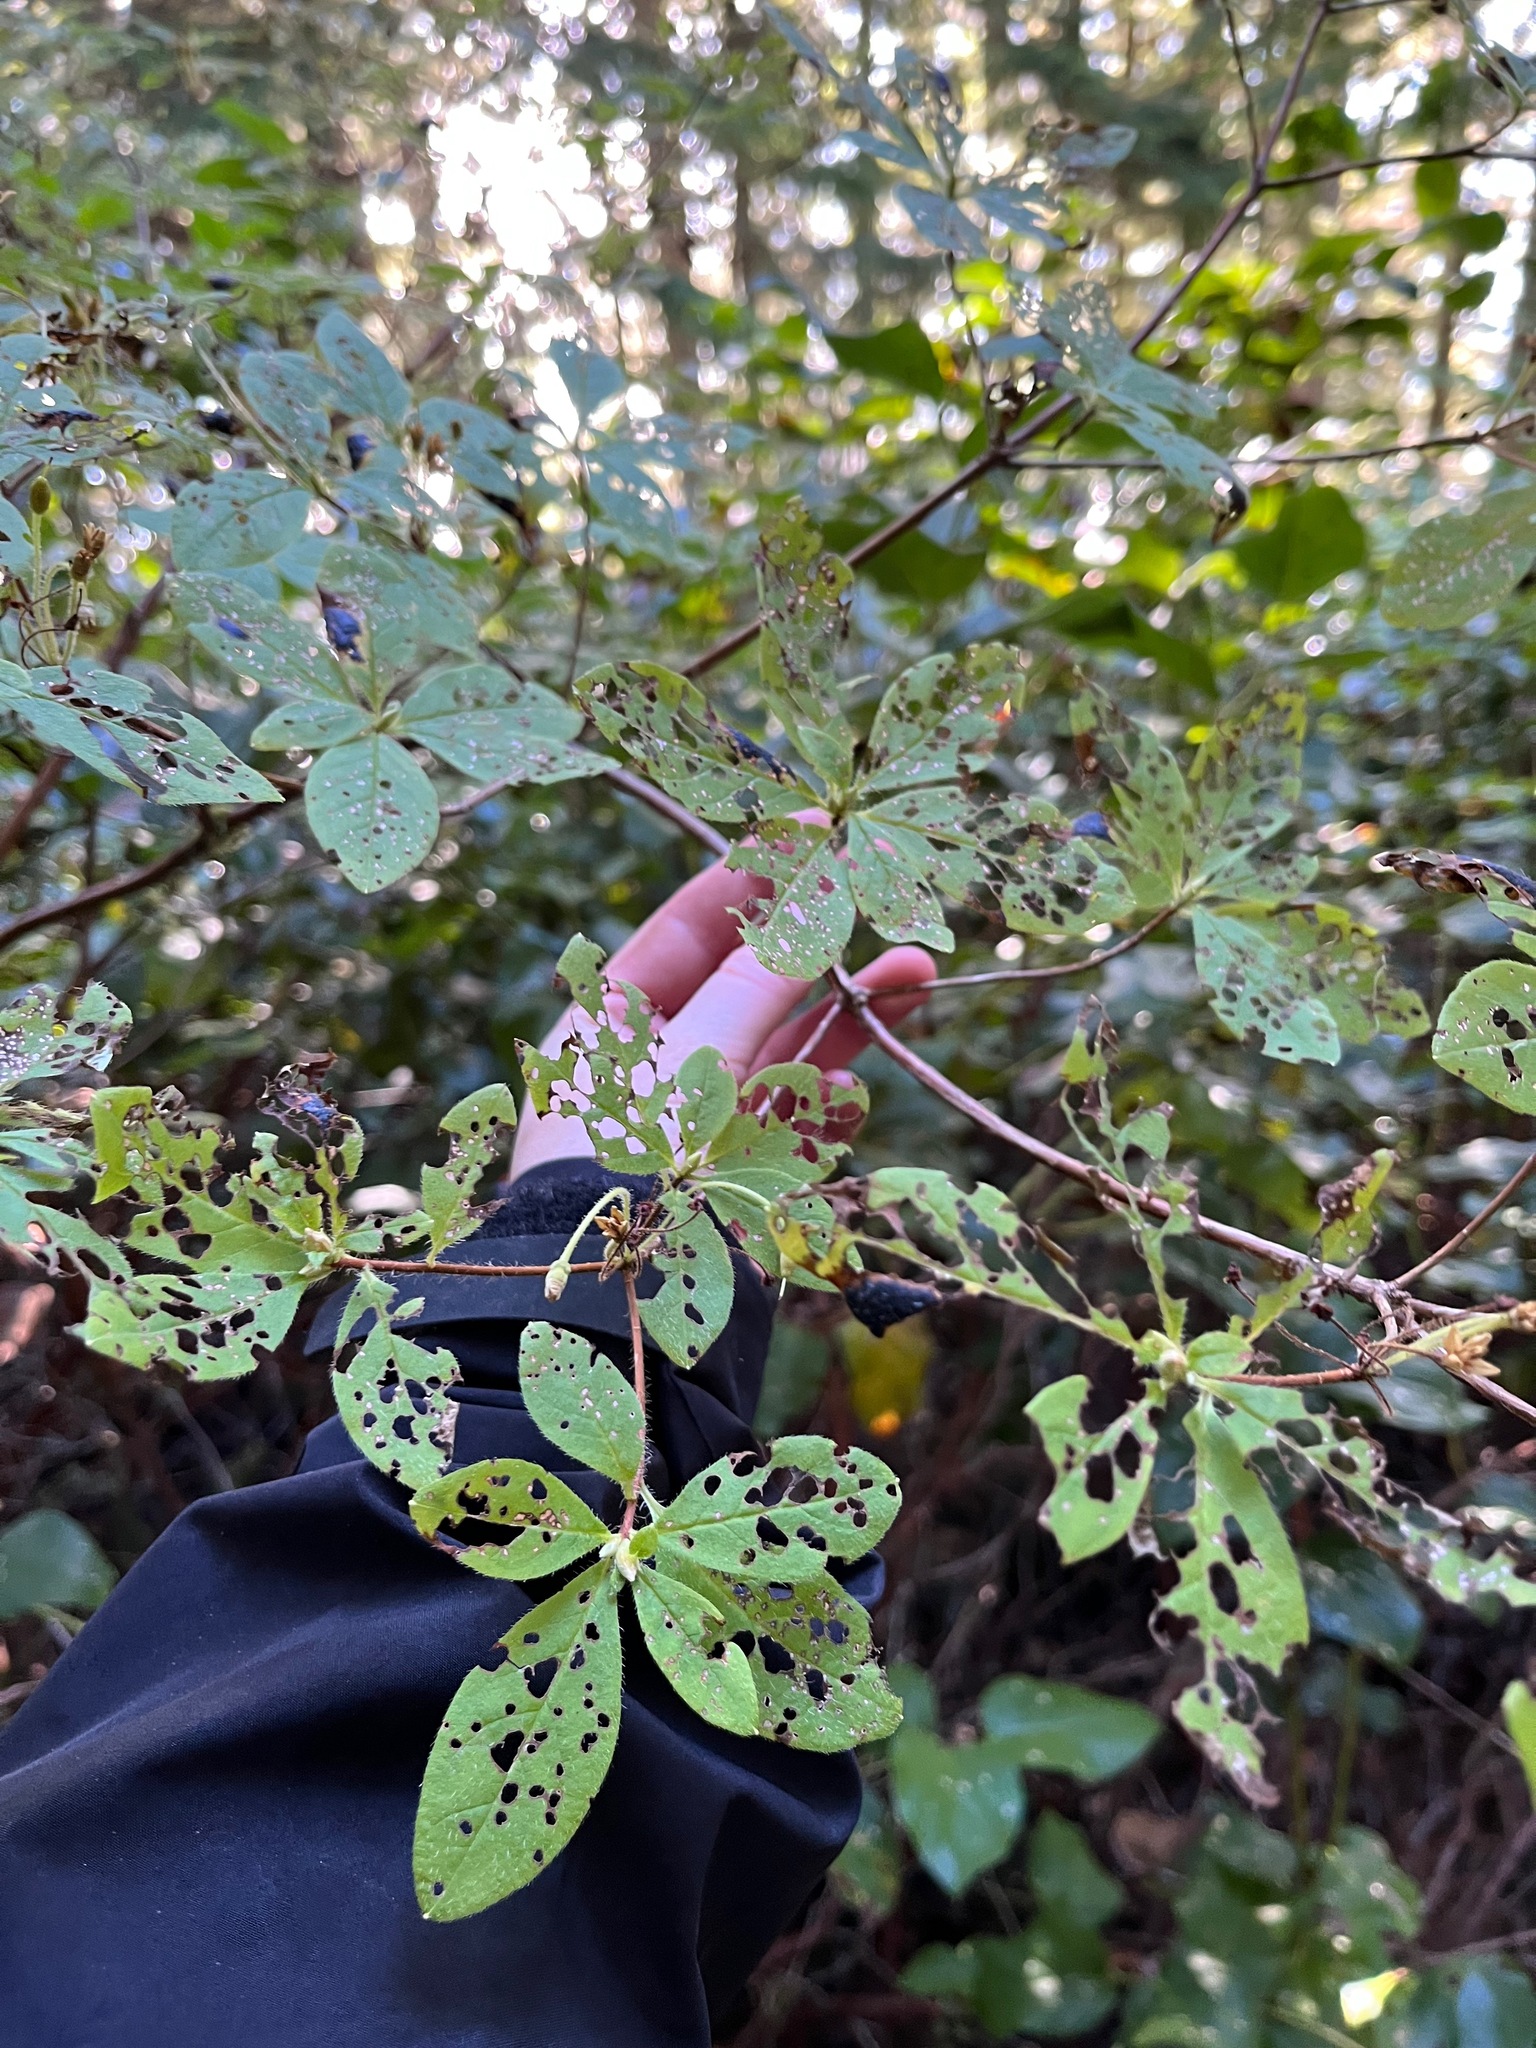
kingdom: Plantae
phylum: Tracheophyta
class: Magnoliopsida
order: Ericales
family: Ericaceae
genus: Rhododendron
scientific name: Rhododendron menziesii
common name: Pacific menziesia
